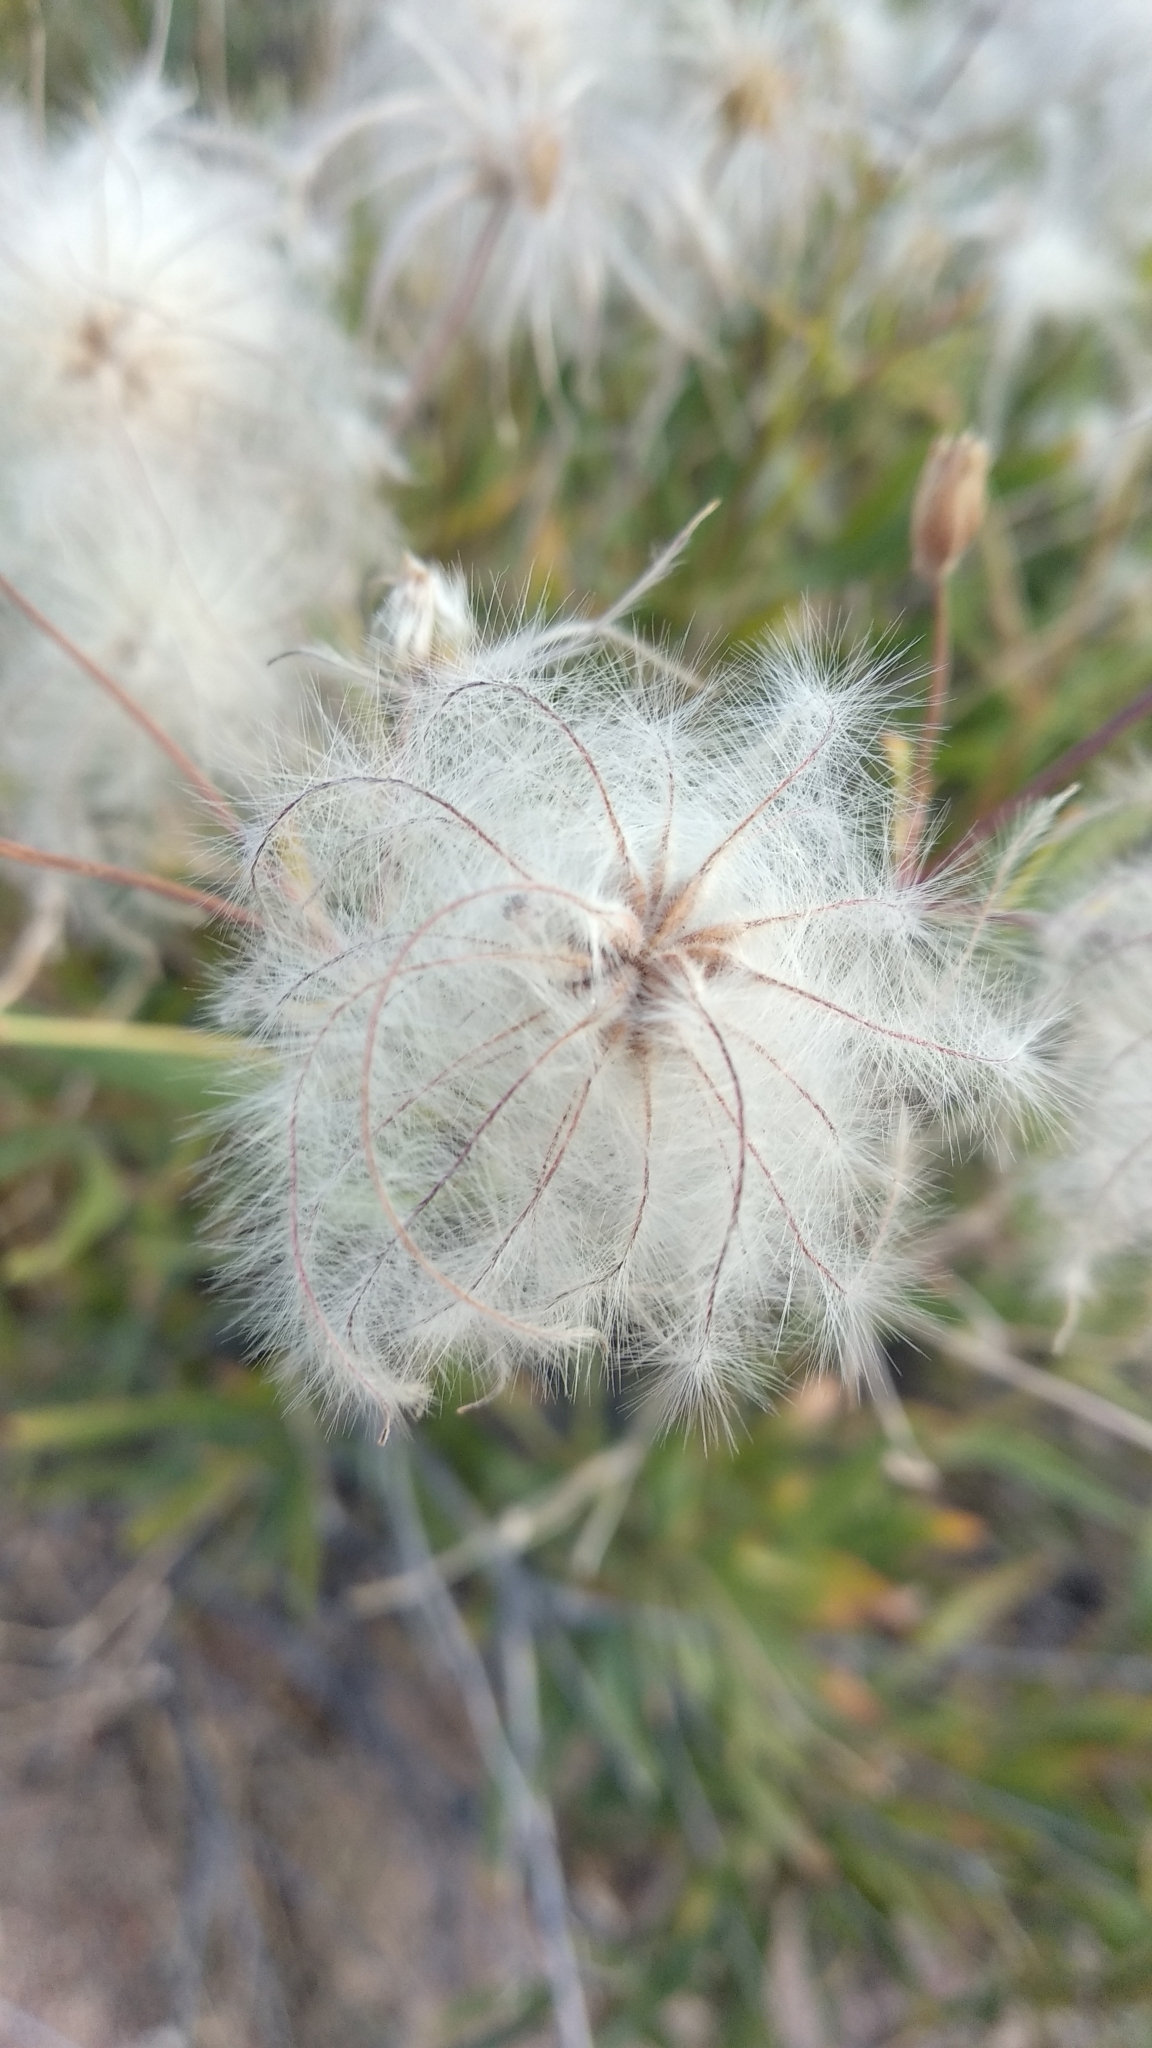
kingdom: Plantae
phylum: Tracheophyta
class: Magnoliopsida
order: Ranunculales
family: Ranunculaceae
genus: Clematis
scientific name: Clematis songorica
